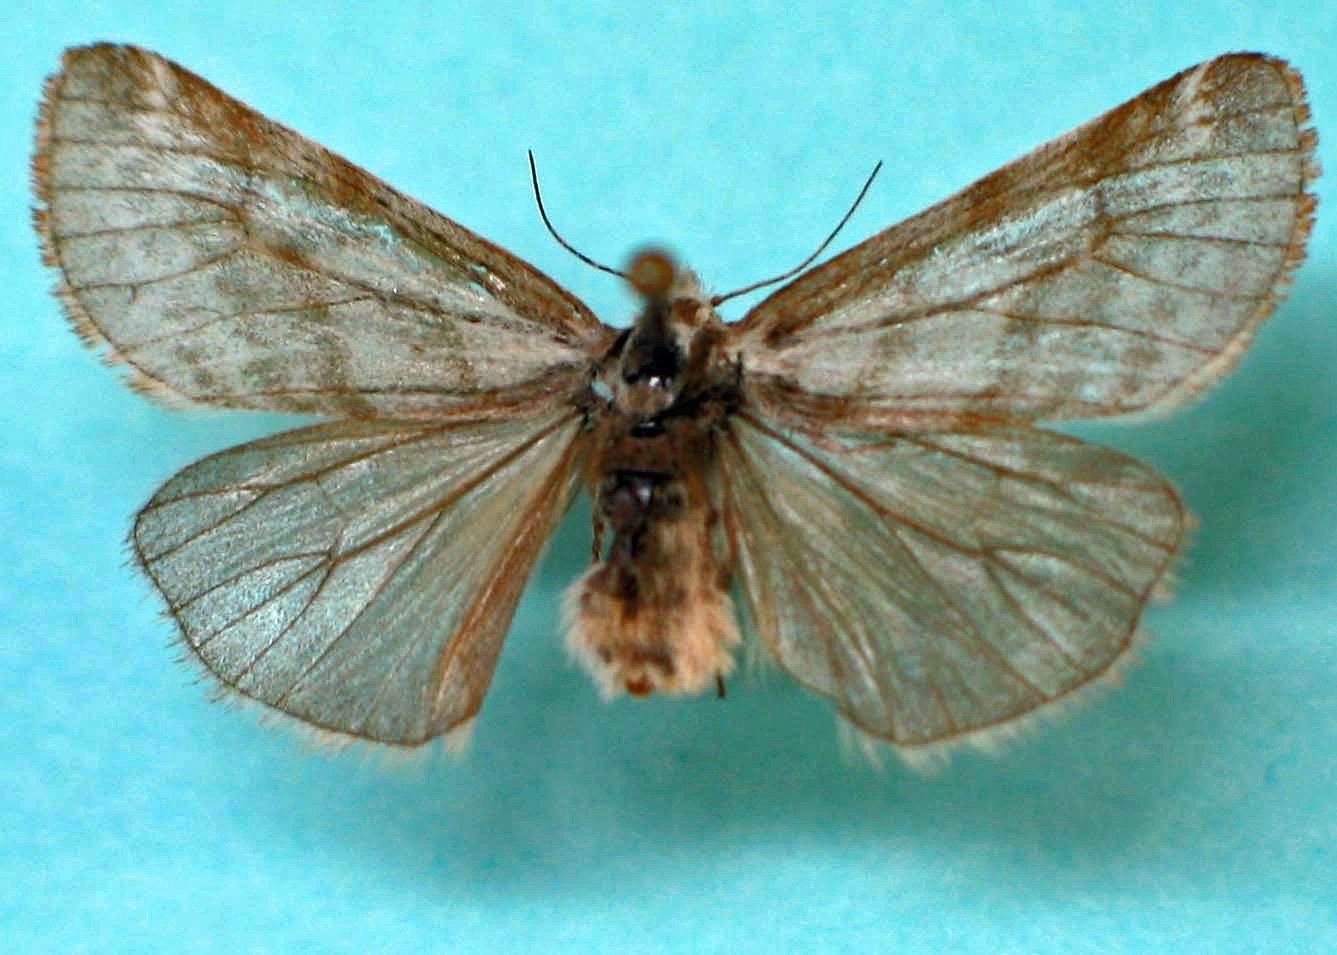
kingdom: Animalia
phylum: Arthropoda
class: Insecta
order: Lepidoptera
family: Erebidae
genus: Dodia
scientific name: Dodia tarandus
